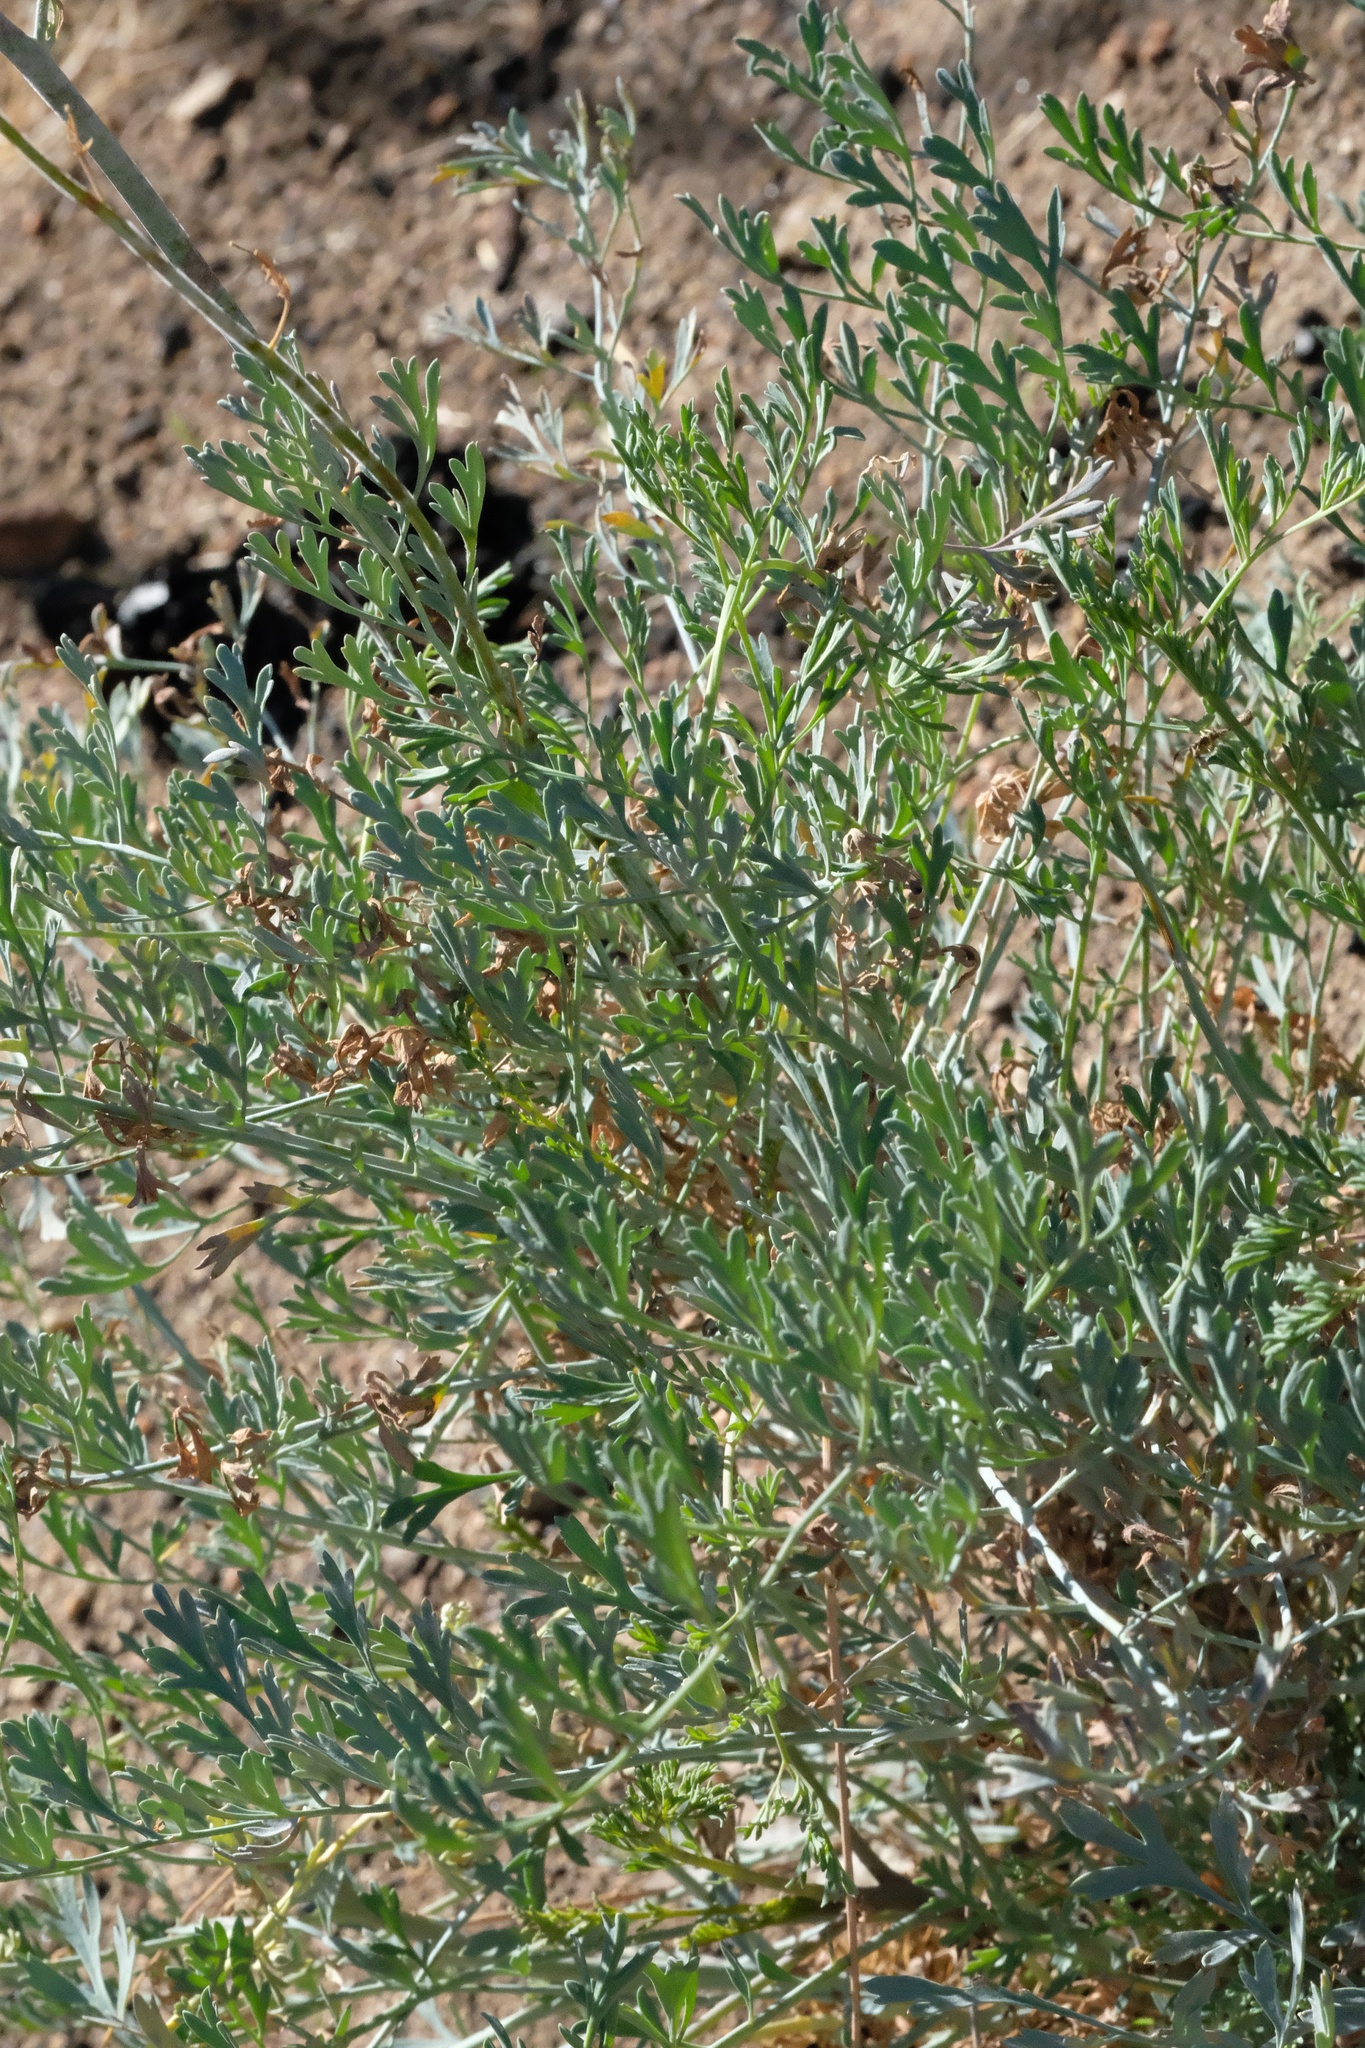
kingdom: Plantae
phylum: Tracheophyta
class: Magnoliopsida
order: Ranunculales
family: Papaveraceae
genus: Ehrendorferia
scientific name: Ehrendorferia chrysantha
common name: Golden eardrops
